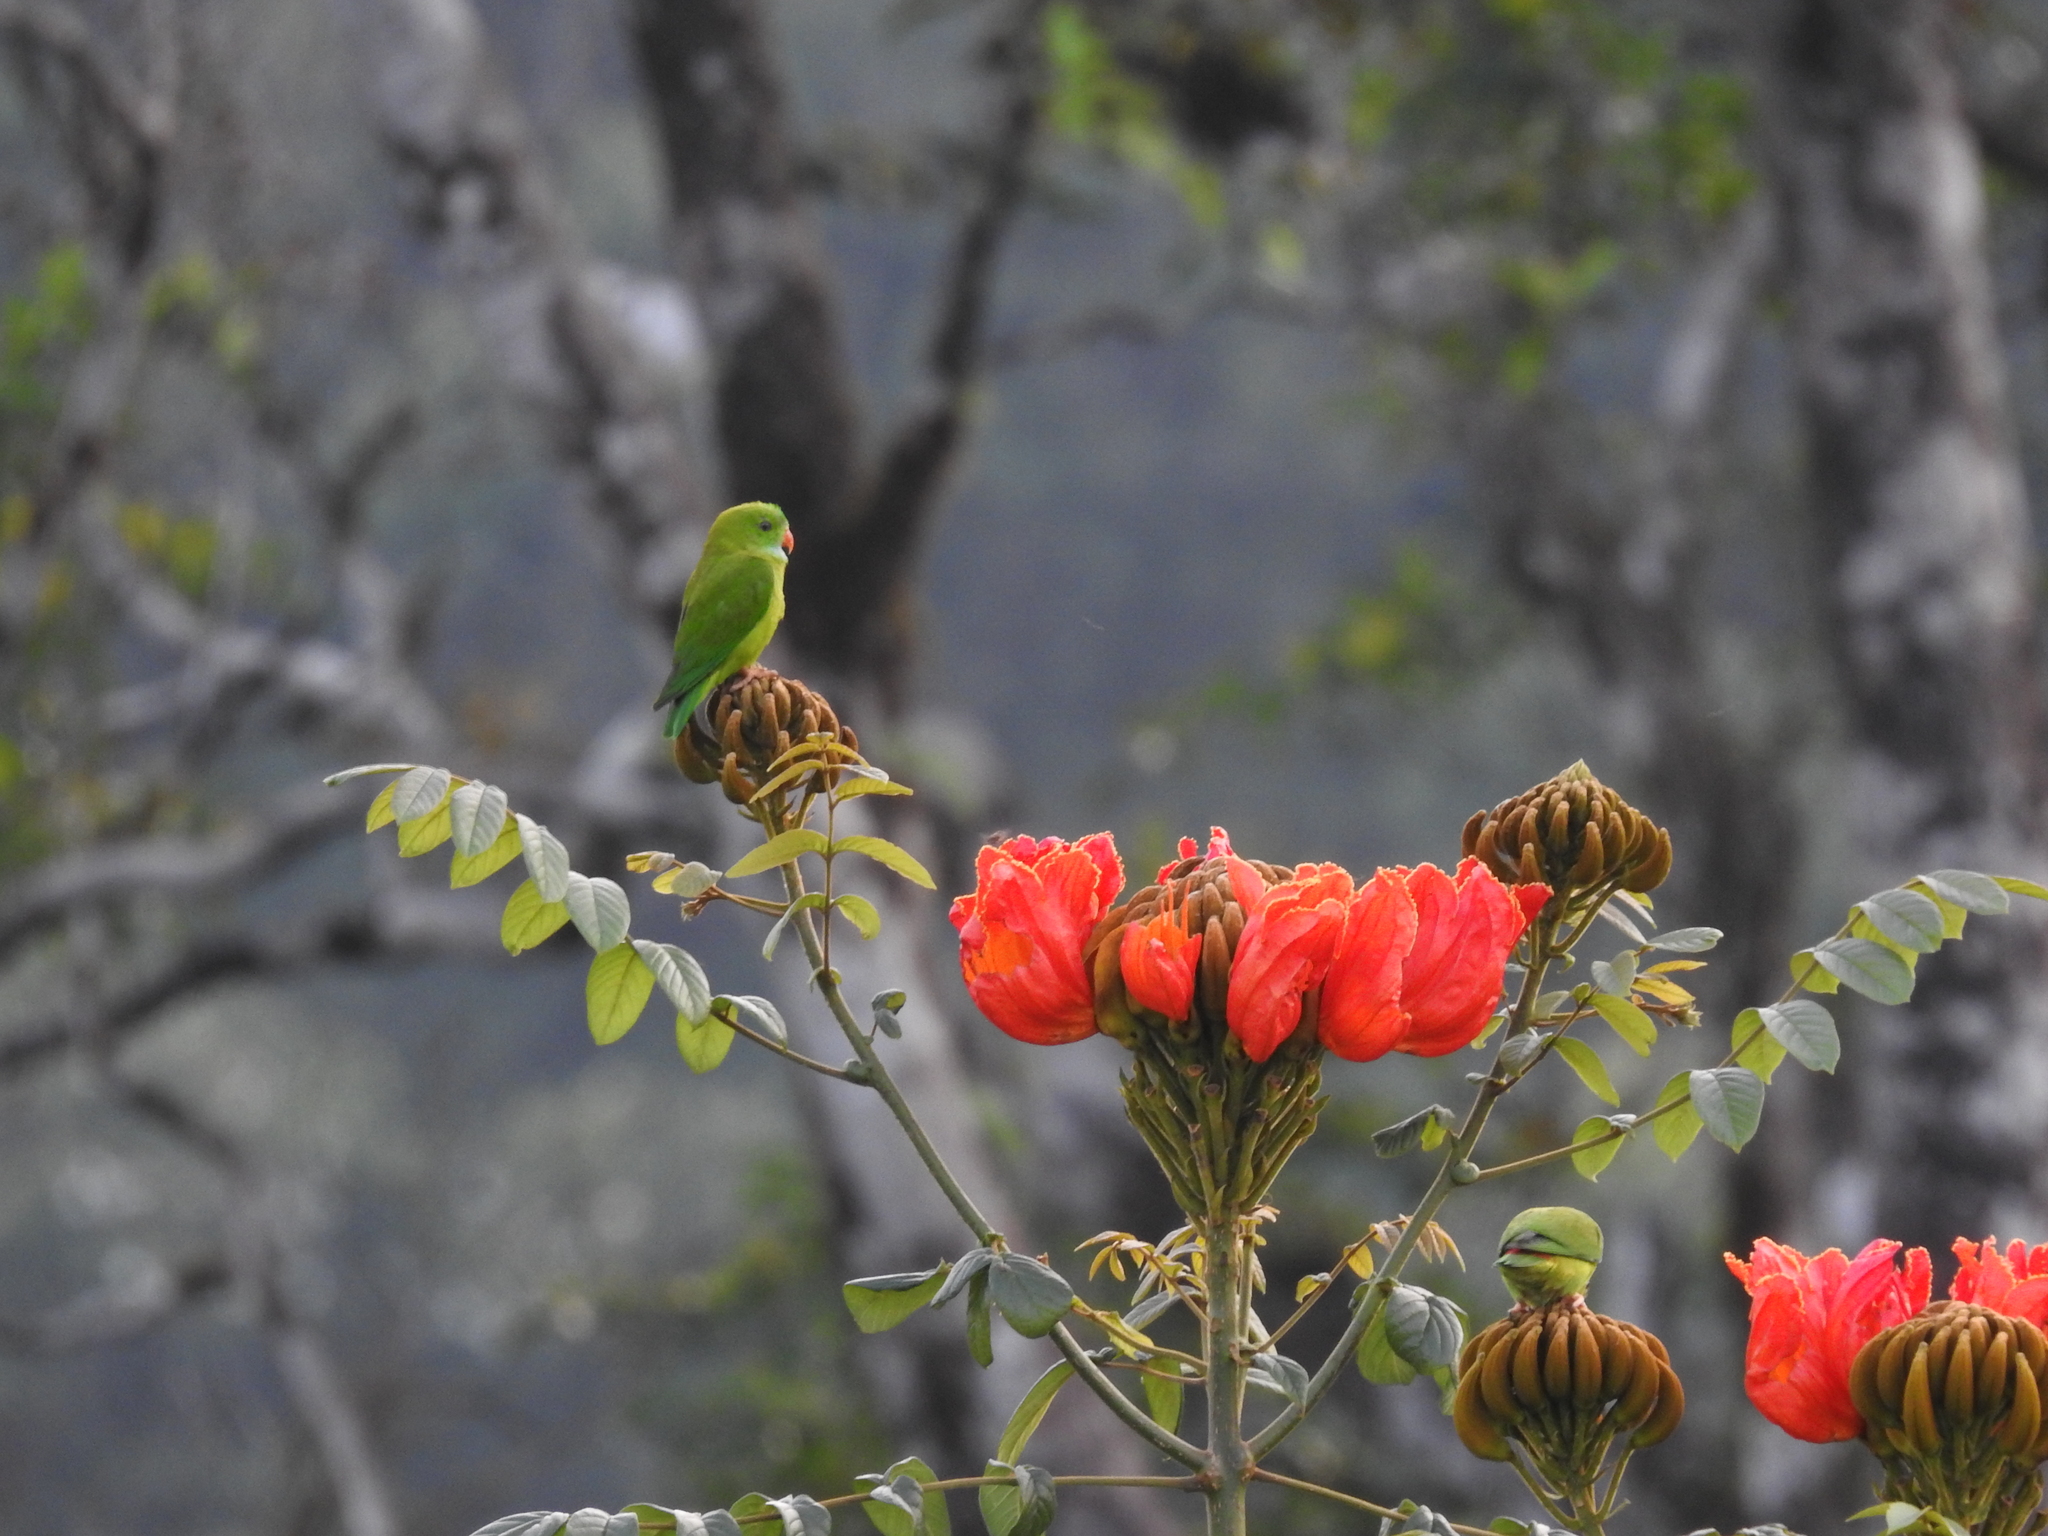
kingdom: Animalia
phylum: Chordata
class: Aves
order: Psittaciformes
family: Psittacidae
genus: Loriculus
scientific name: Loriculus vernalis
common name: Vernal hanging parrot
